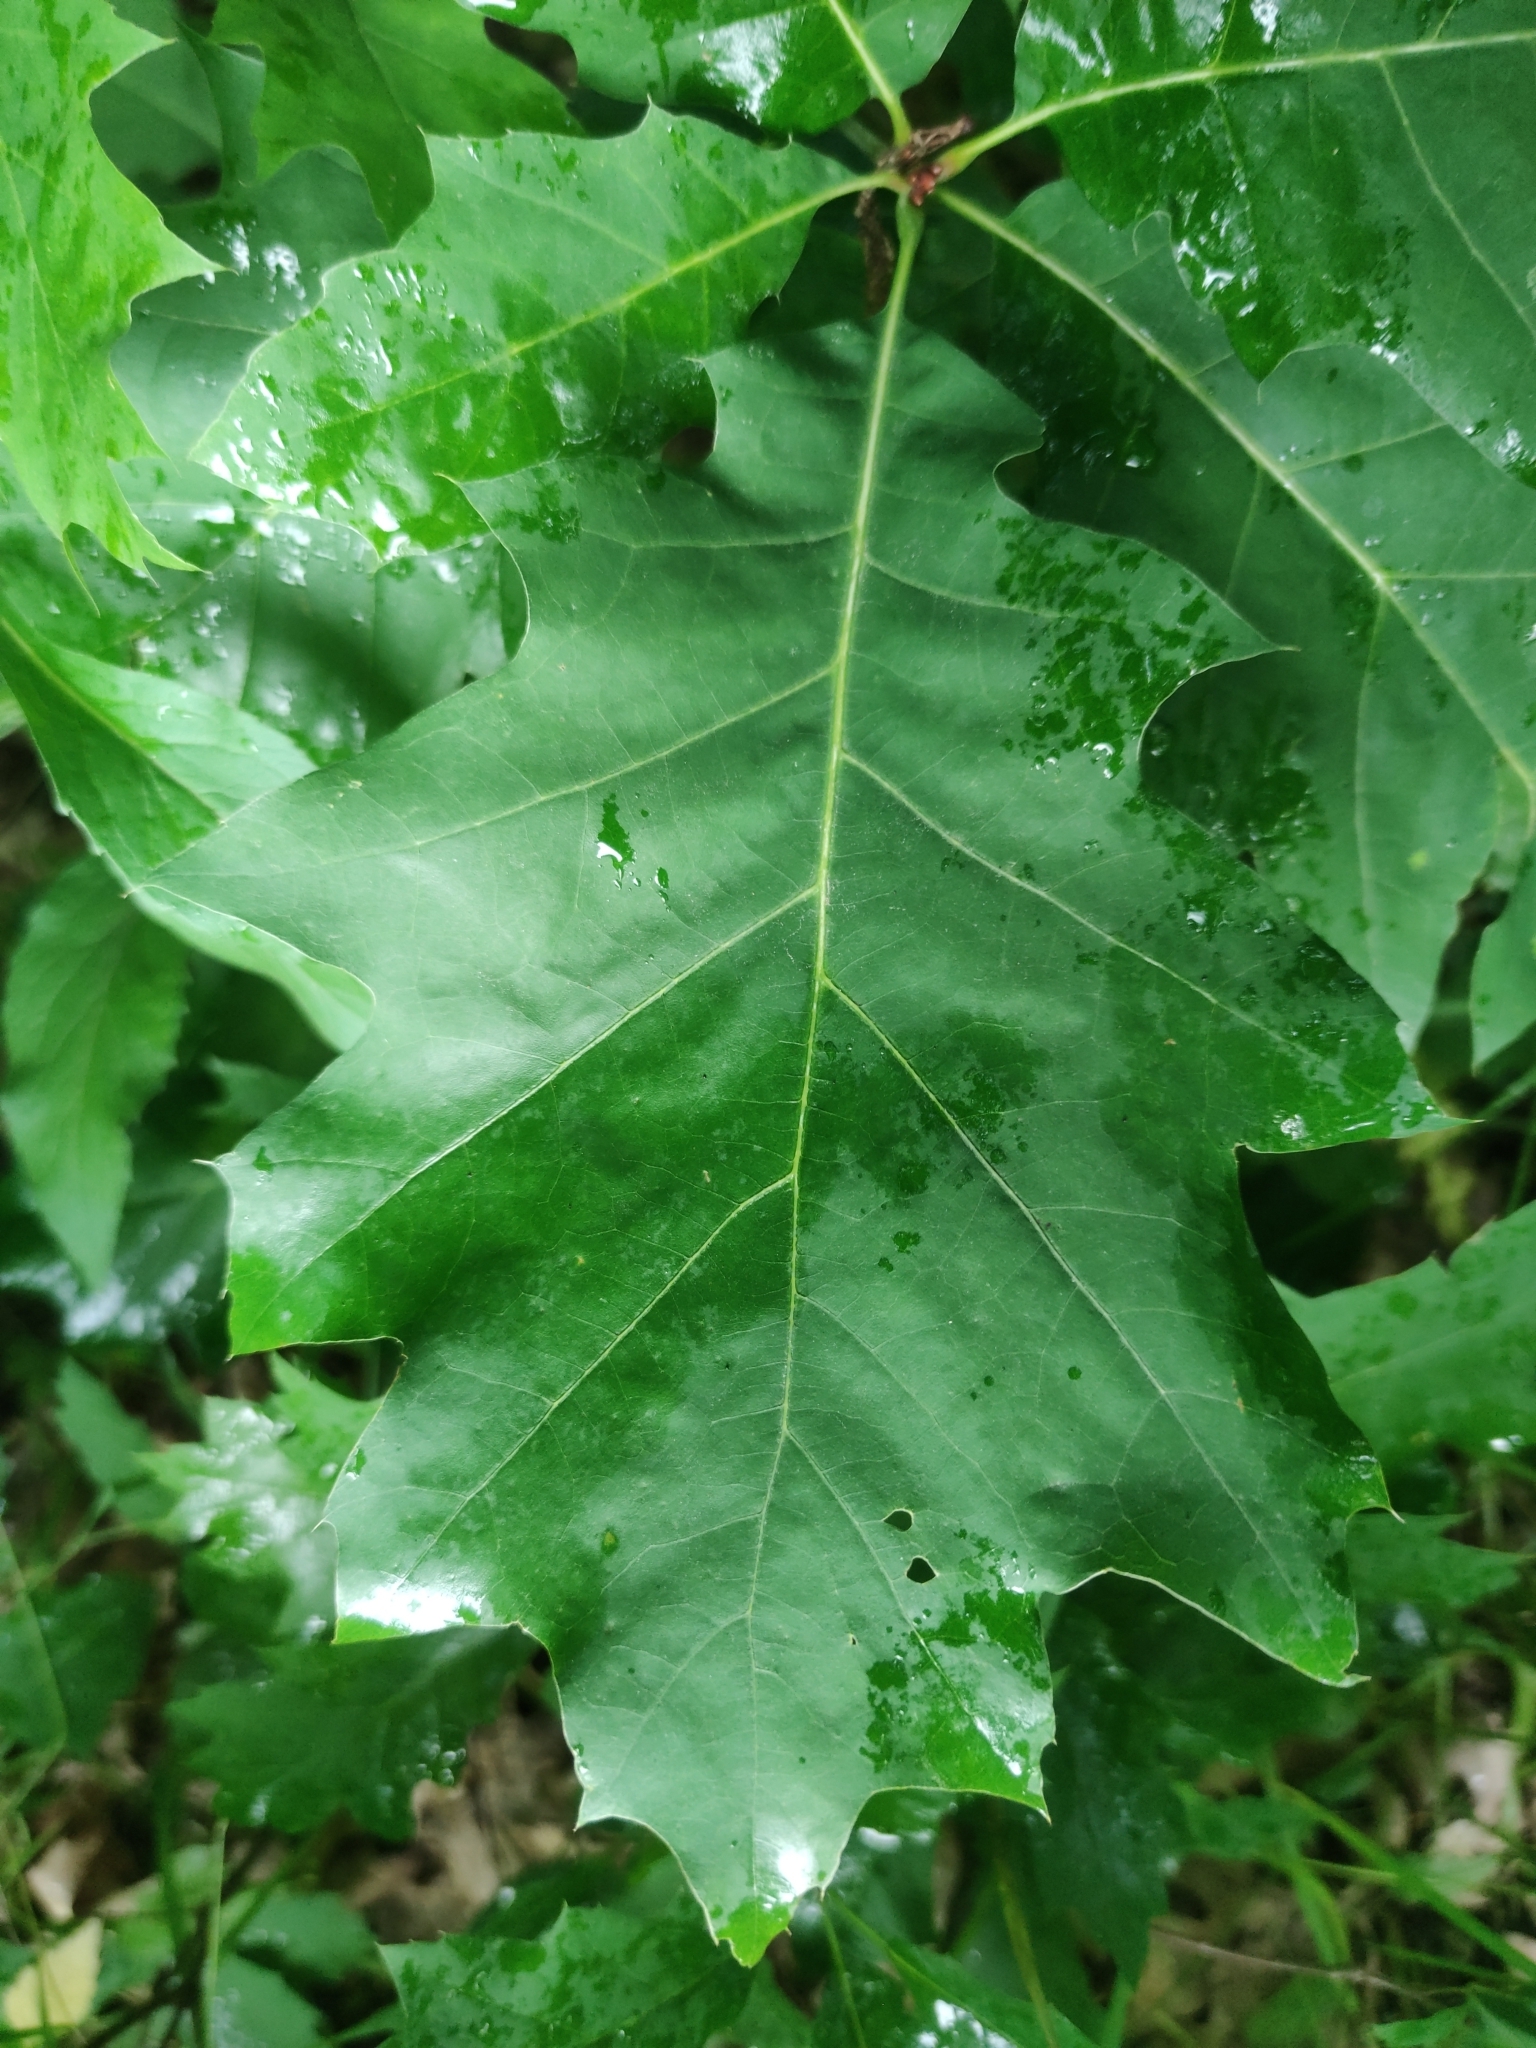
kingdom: Plantae
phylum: Tracheophyta
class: Magnoliopsida
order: Fagales
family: Fagaceae
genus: Quercus
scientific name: Quercus rubra
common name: Red oak
